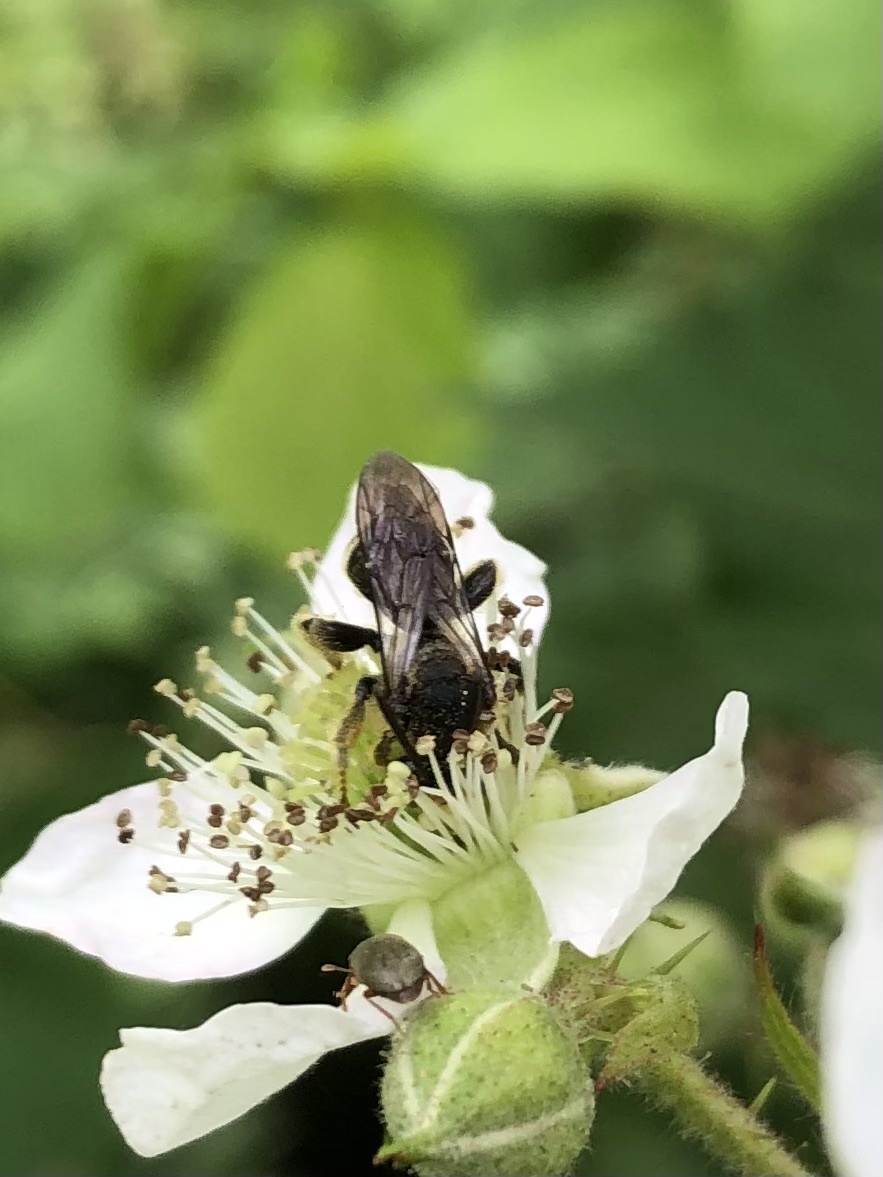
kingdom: Animalia
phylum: Arthropoda
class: Insecta
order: Hymenoptera
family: Melittidae
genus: Macropis
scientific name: Macropis europaea
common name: Yellow loosestrife bee
